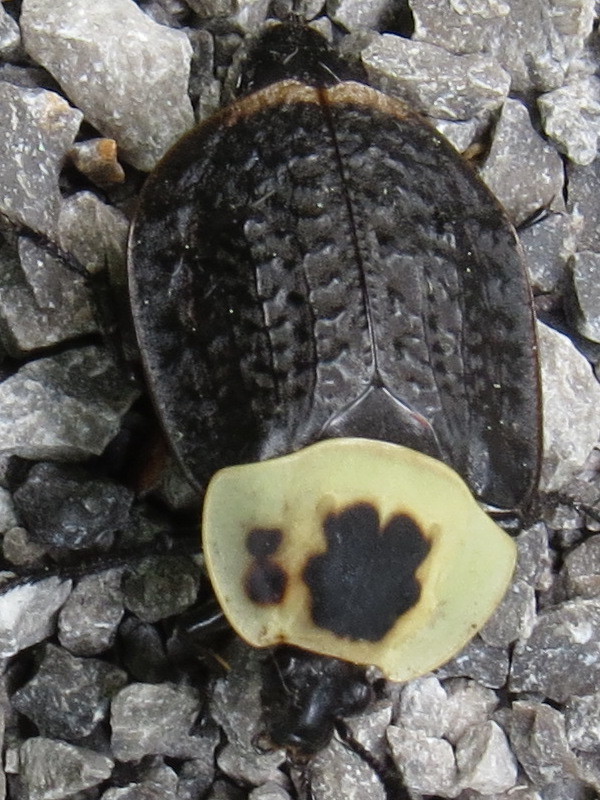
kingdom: Animalia
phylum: Arthropoda
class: Insecta
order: Coleoptera
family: Staphylinidae
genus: Necrophila
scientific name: Necrophila americana
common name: American carrion beetle
